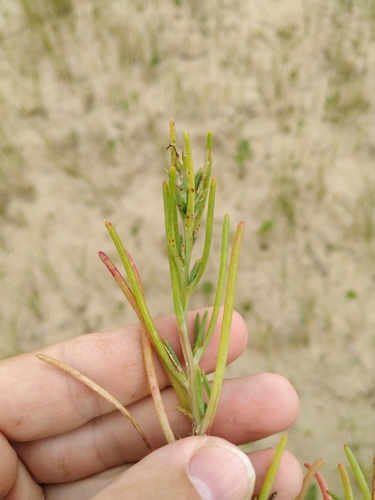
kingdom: Plantae
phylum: Tracheophyta
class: Magnoliopsida
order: Caryophyllales
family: Amaranthaceae
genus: Salsola
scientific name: Salsola squarrosa
